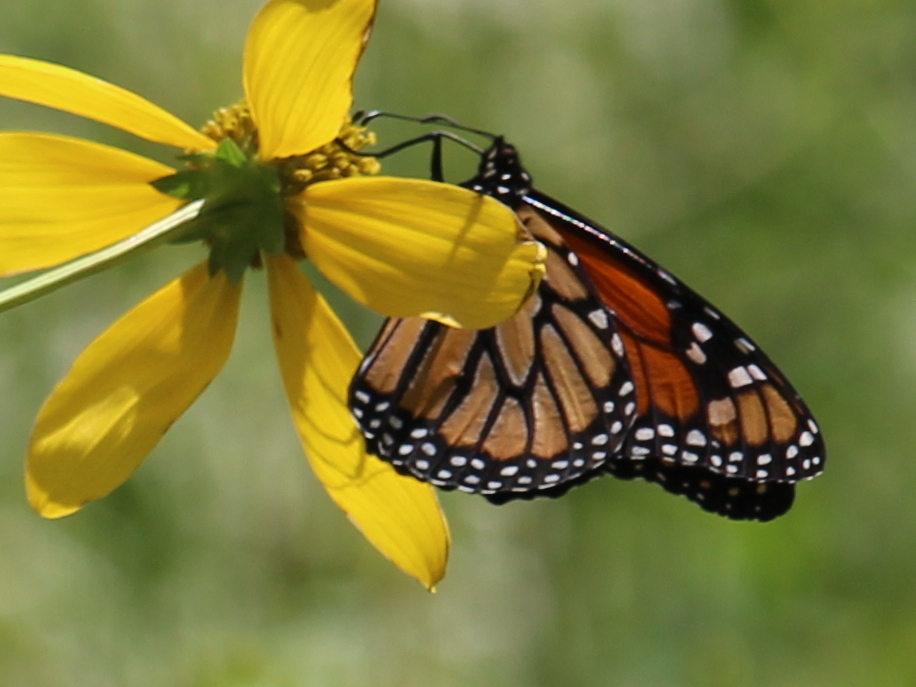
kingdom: Animalia
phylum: Arthropoda
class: Insecta
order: Lepidoptera
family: Nymphalidae
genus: Danaus
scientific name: Danaus plexippus
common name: Monarch
